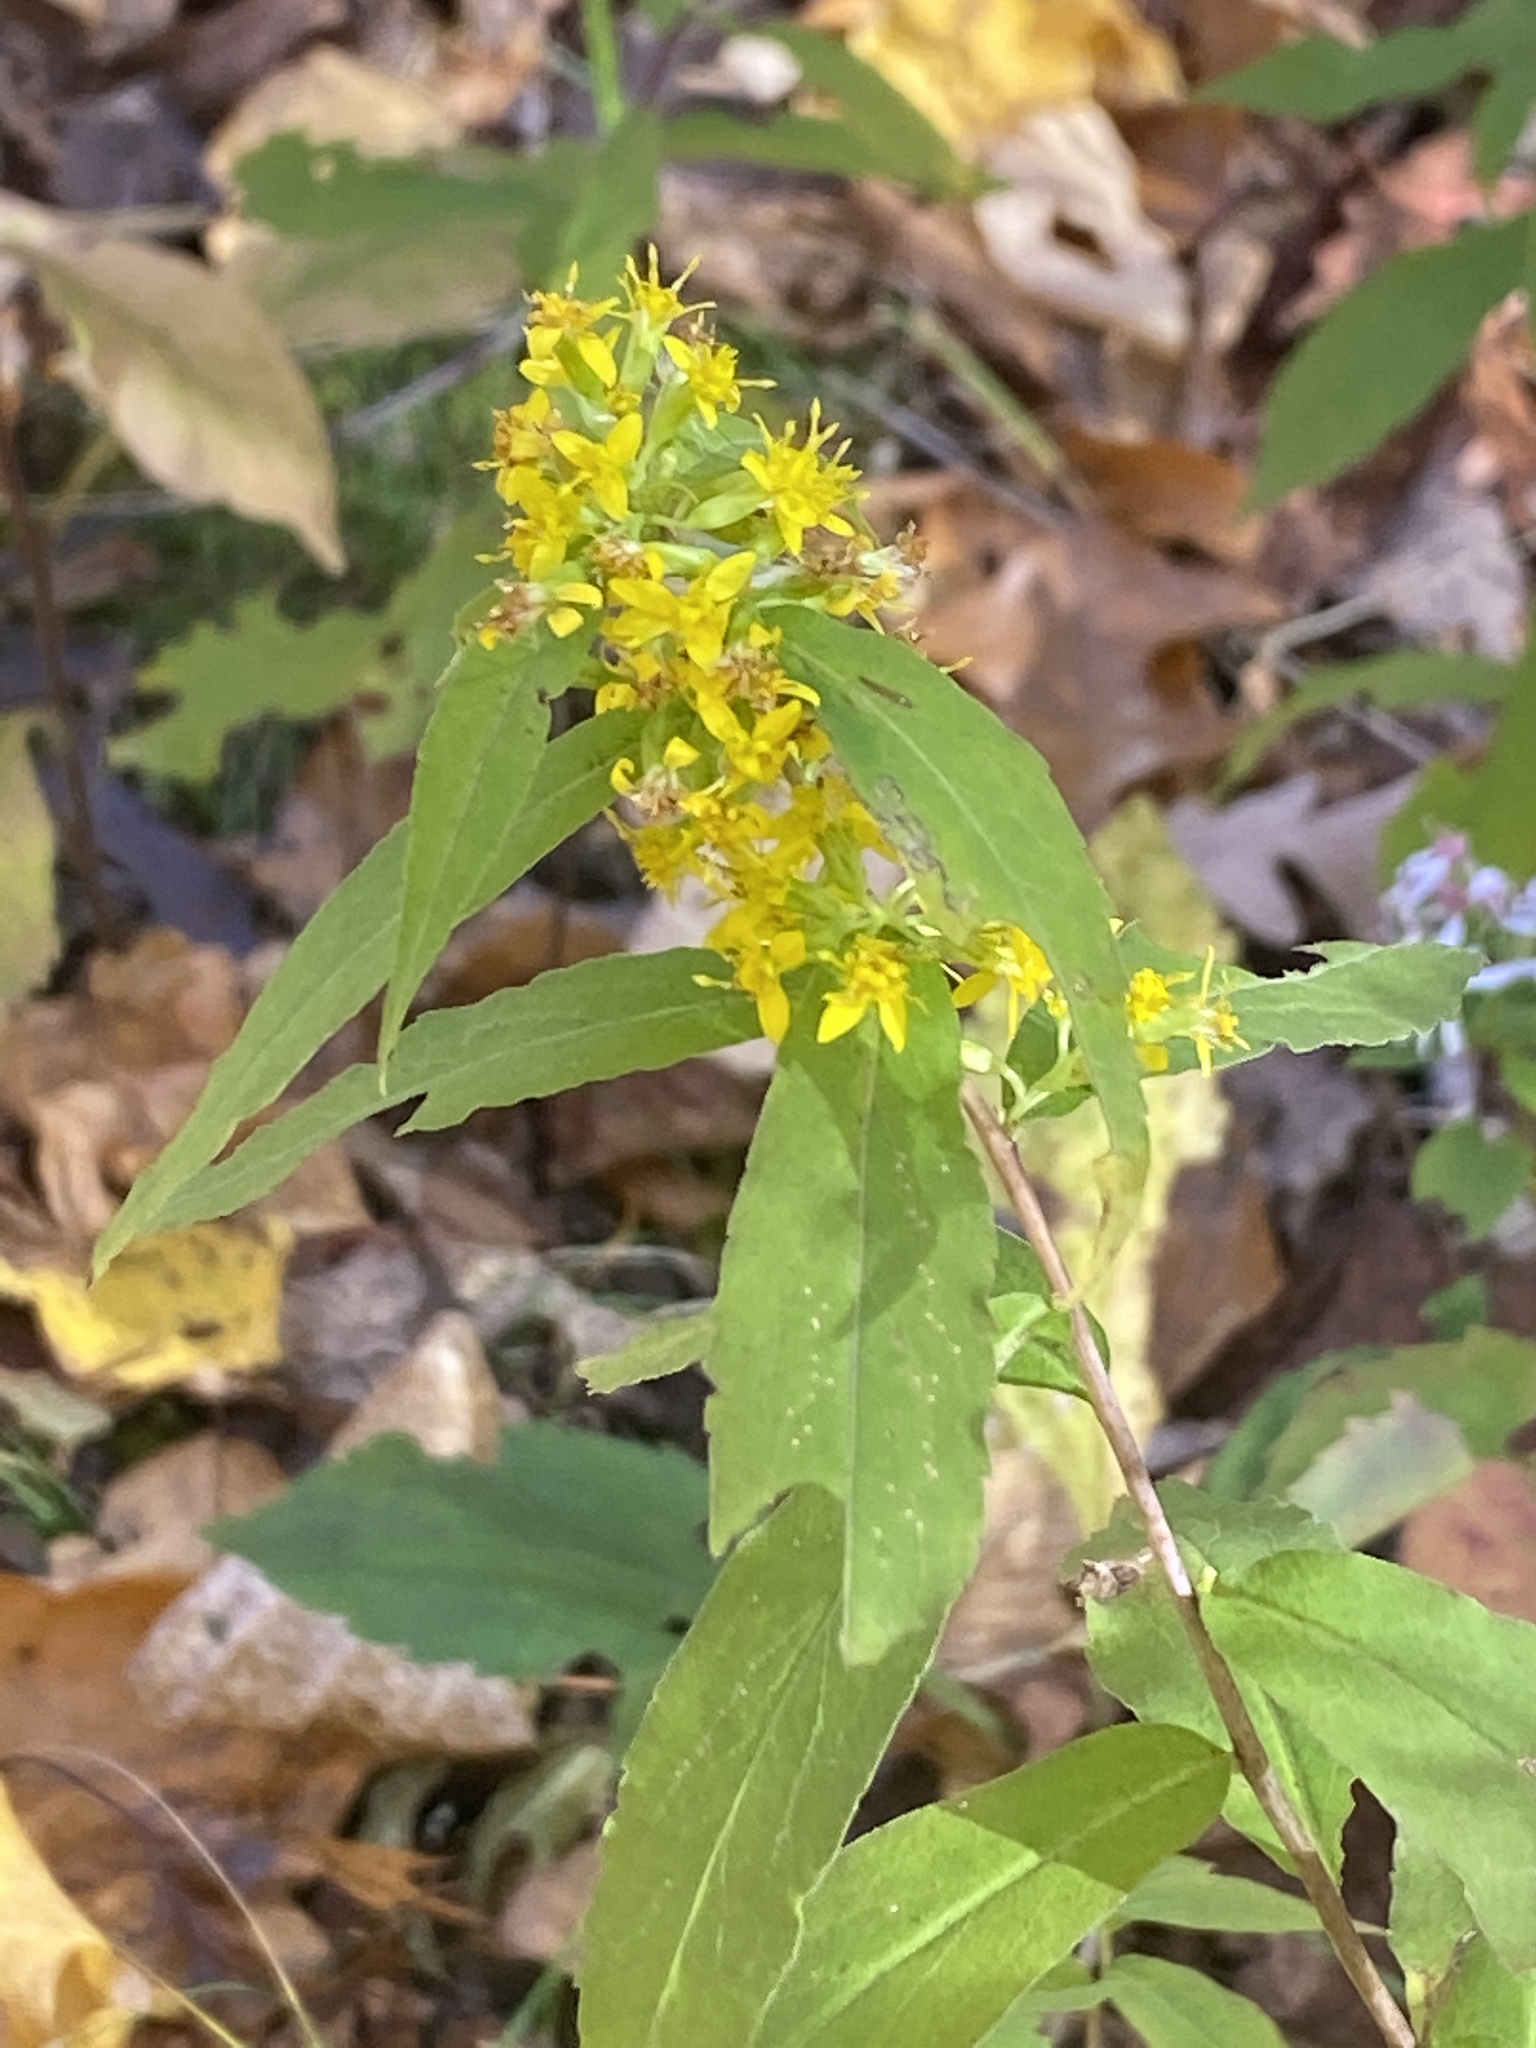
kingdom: Plantae
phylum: Tracheophyta
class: Magnoliopsida
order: Asterales
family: Asteraceae
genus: Solidago
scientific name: Solidago caesia
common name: Woodland goldenrod
